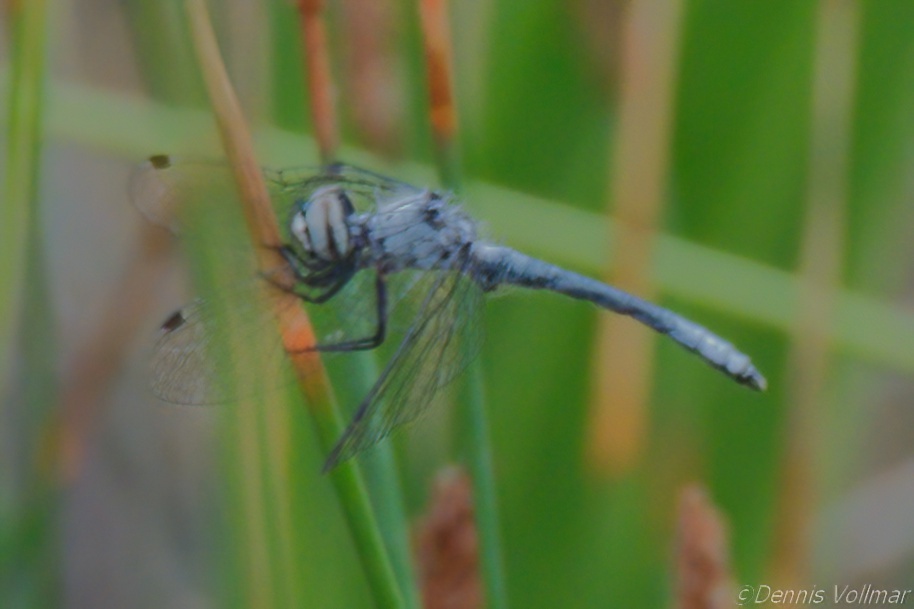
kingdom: Animalia
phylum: Arthropoda
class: Insecta
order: Odonata
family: Libellulidae
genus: Nannothemis
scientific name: Nannothemis bella
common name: Elfin skimmer
